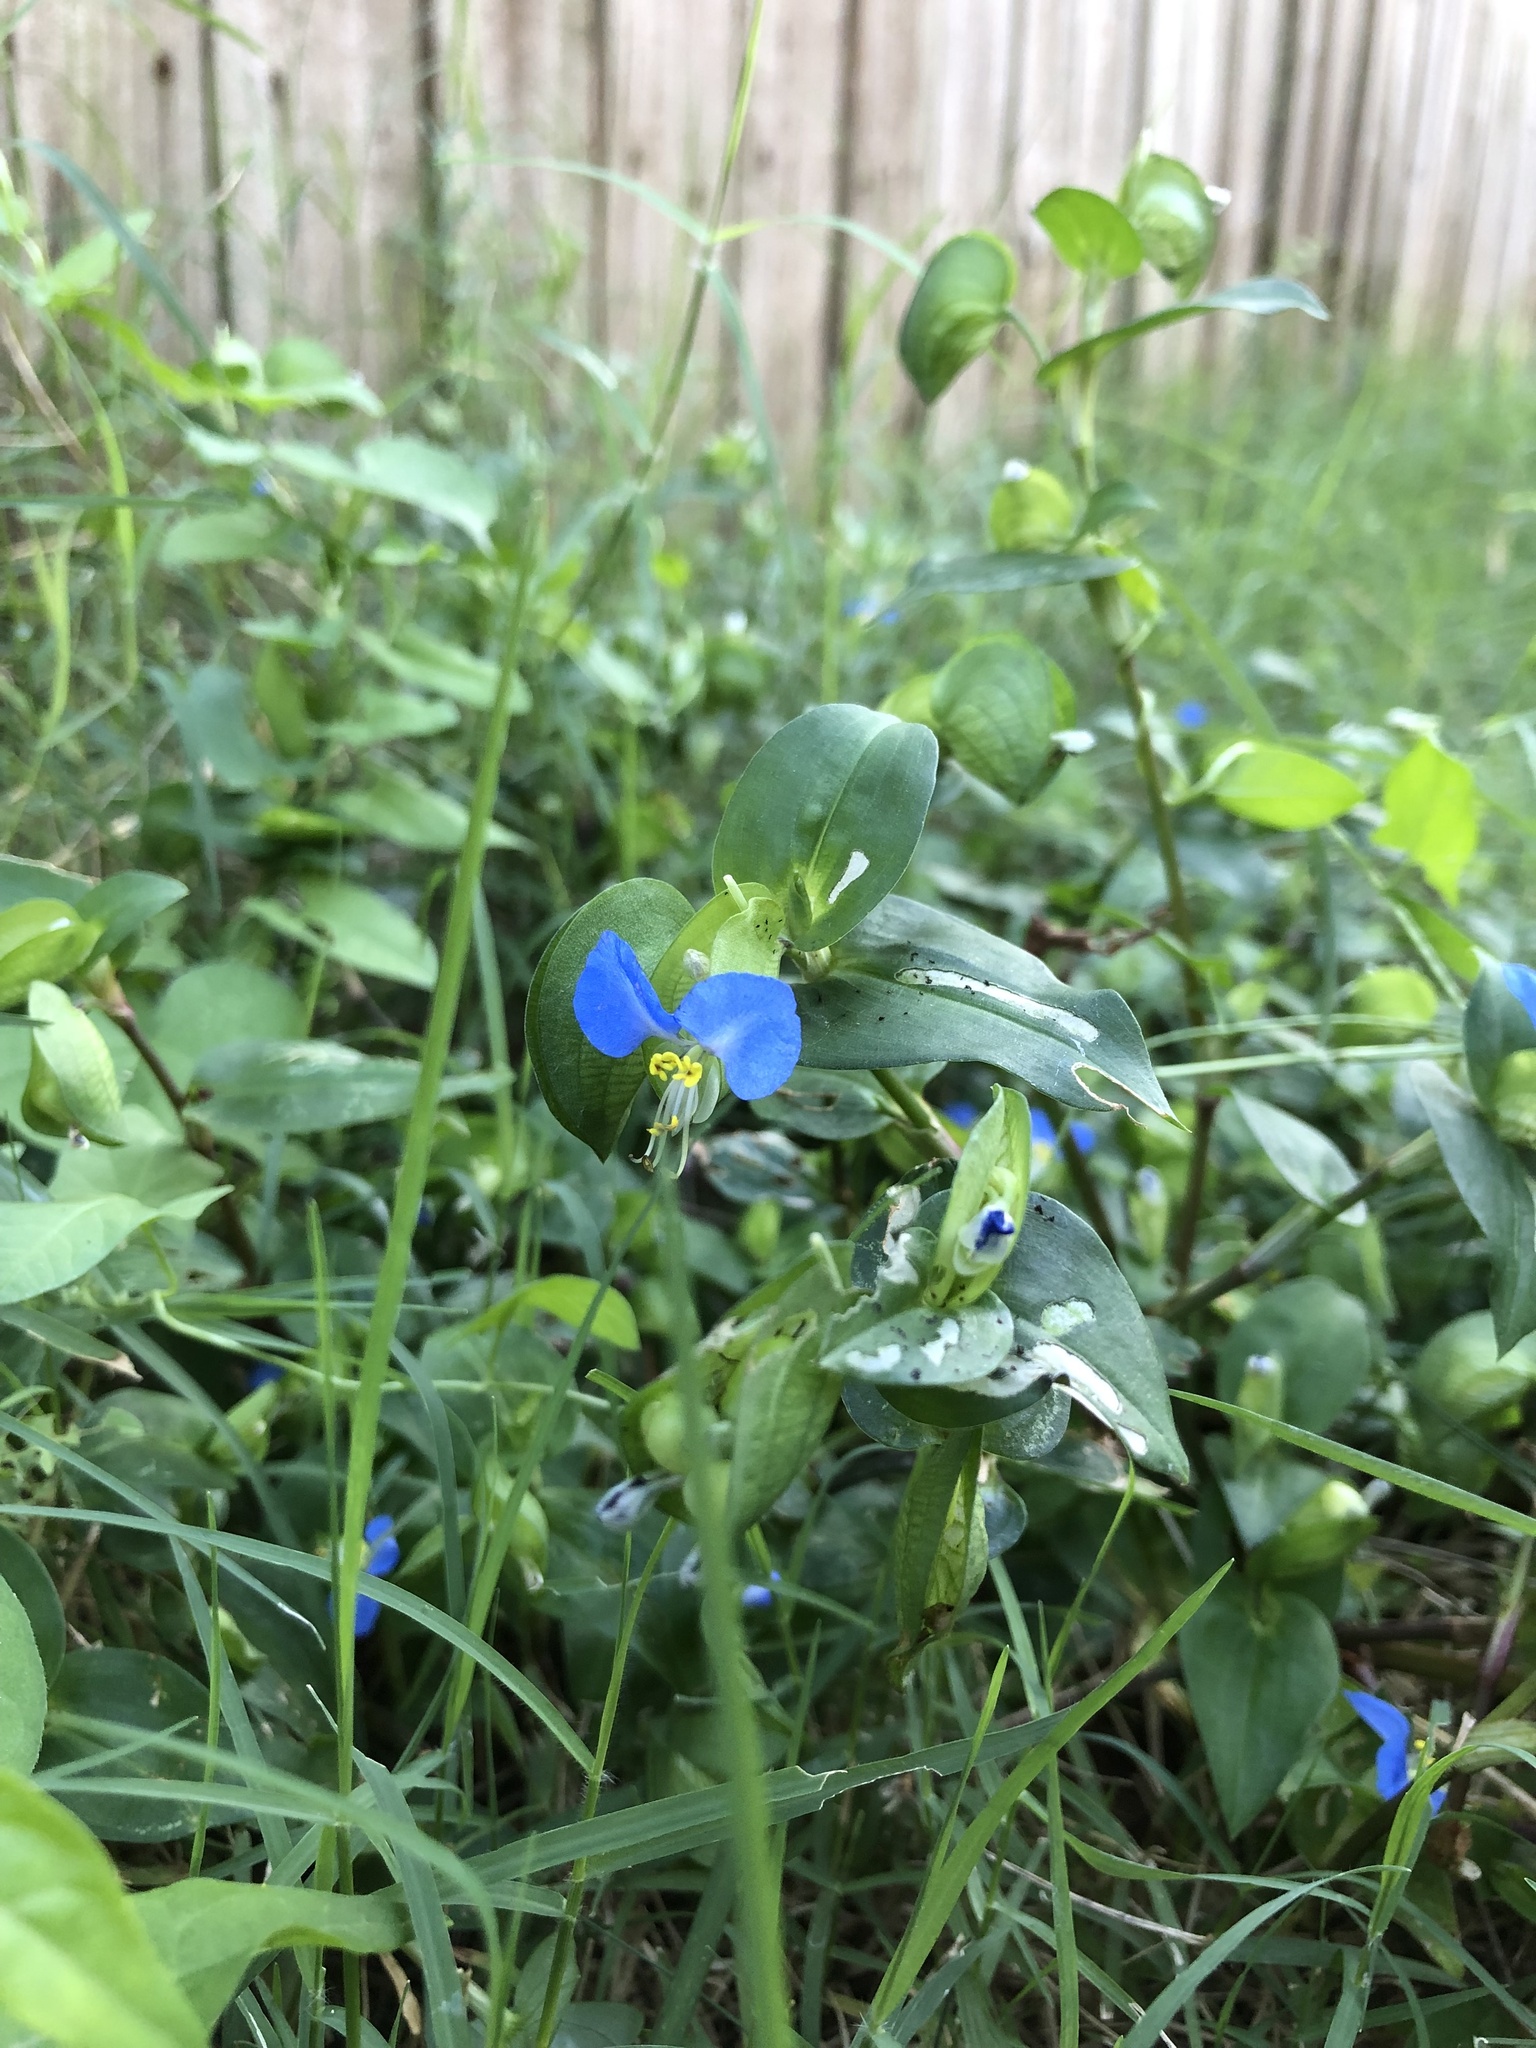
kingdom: Plantae
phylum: Tracheophyta
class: Liliopsida
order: Commelinales
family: Commelinaceae
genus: Commelina
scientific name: Commelina communis
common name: Asiatic dayflower
